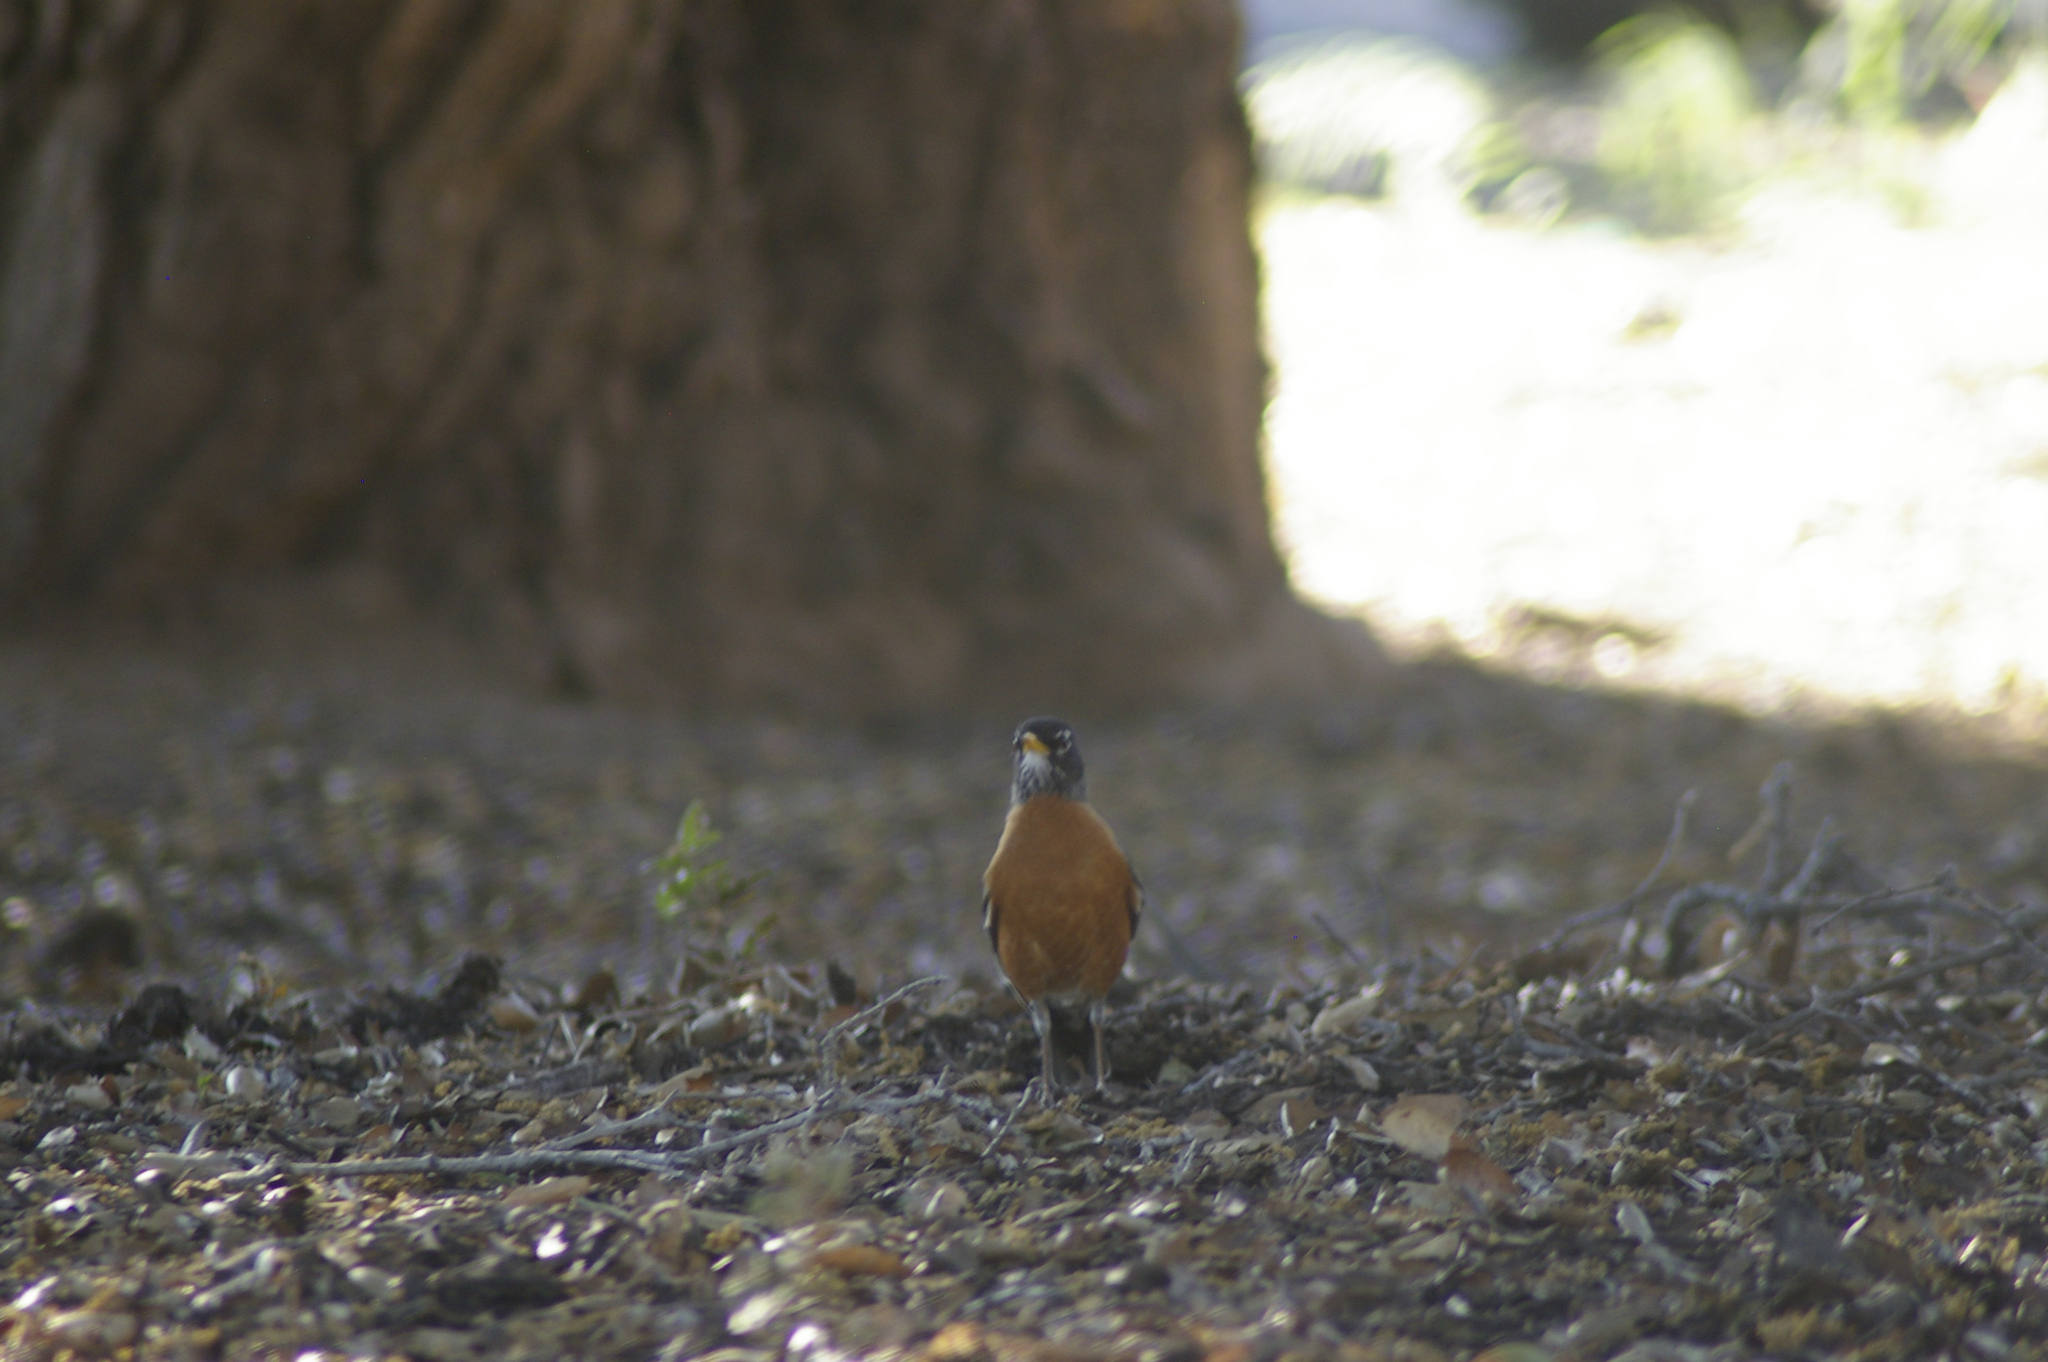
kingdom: Animalia
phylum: Chordata
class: Aves
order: Passeriformes
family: Turdidae
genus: Turdus
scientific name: Turdus migratorius
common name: American robin
